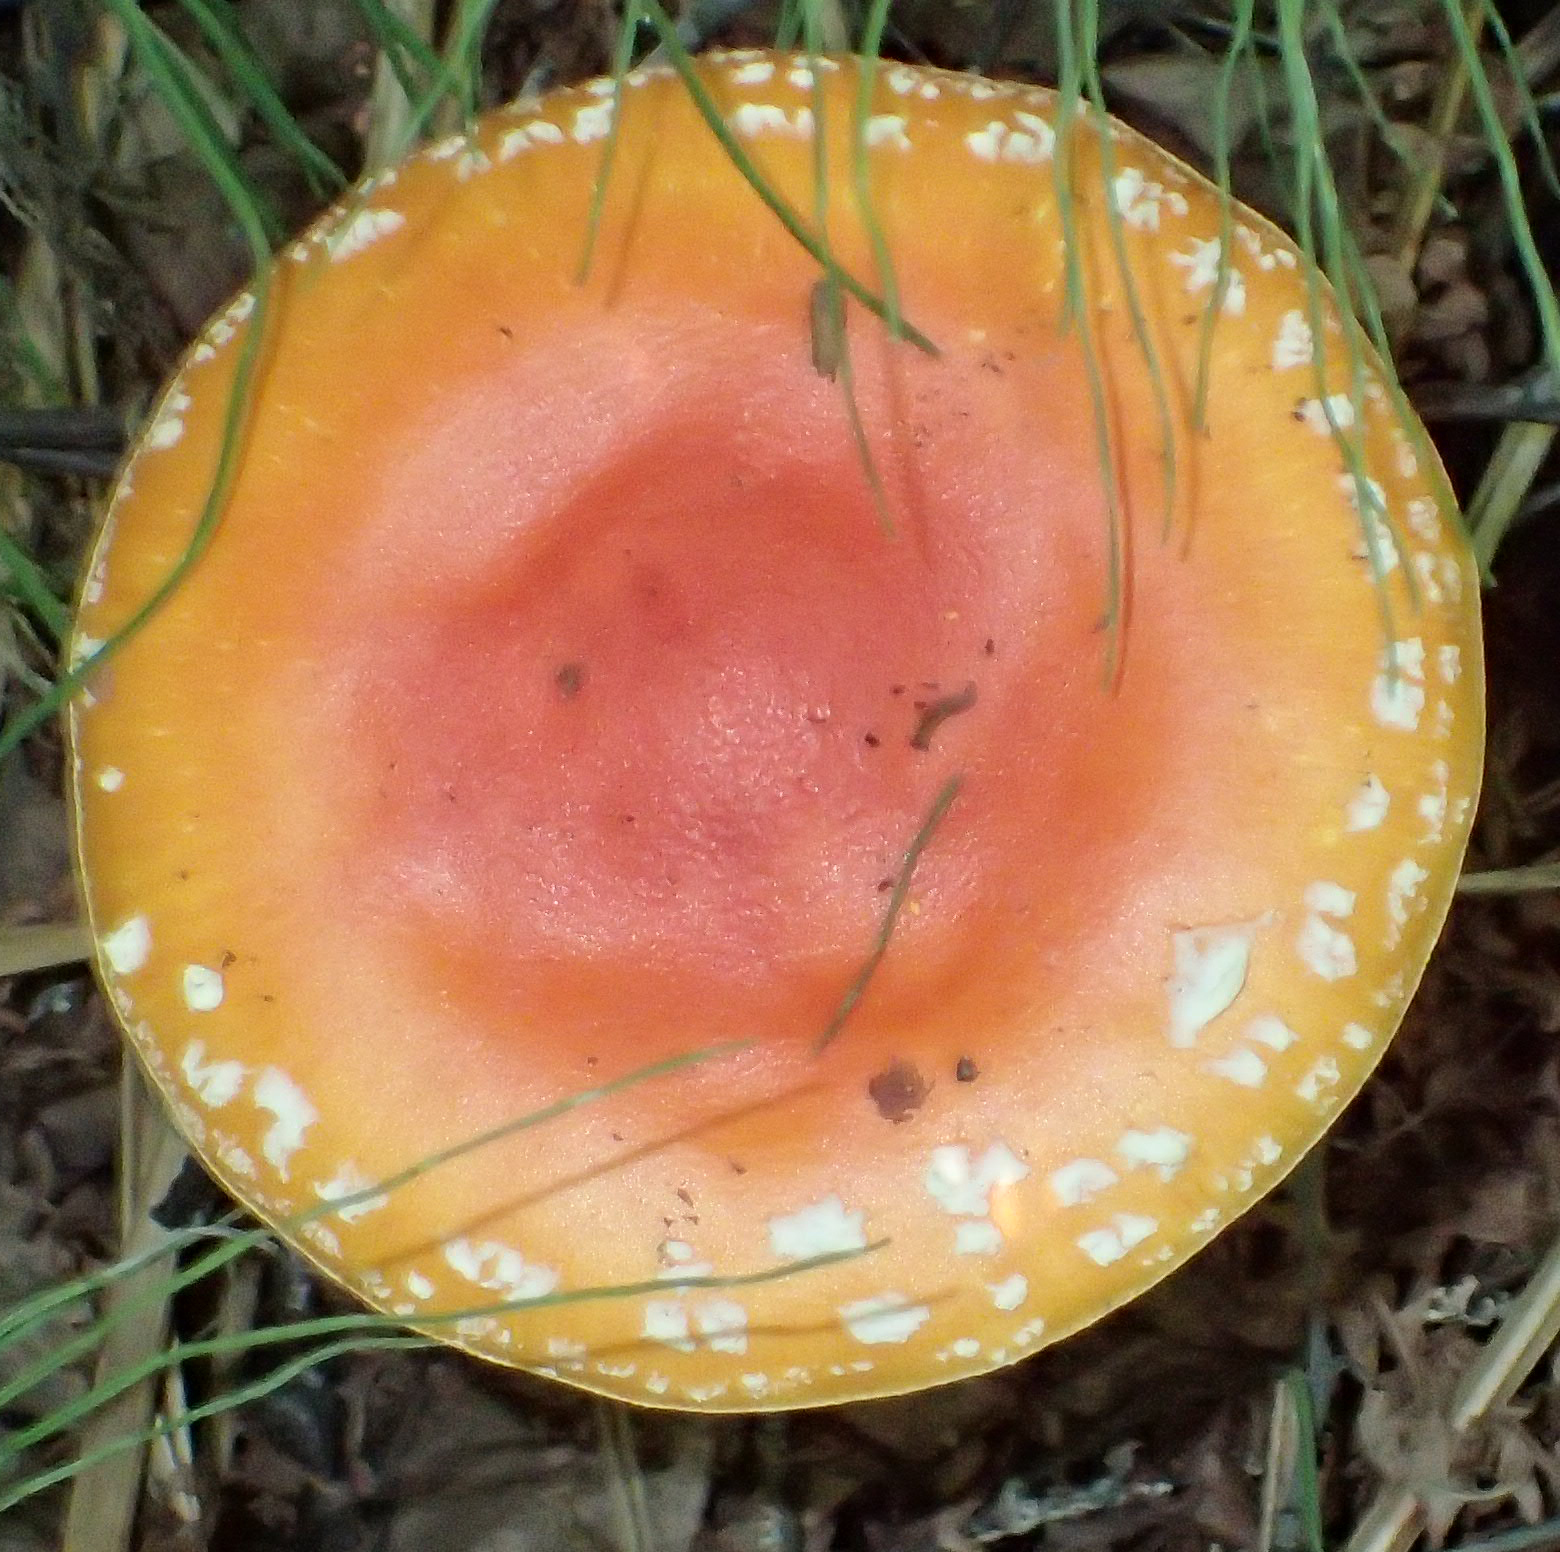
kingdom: Fungi
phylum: Basidiomycota
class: Agaricomycetes
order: Agaricales
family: Amanitaceae
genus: Amanita
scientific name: Amanita muscaria
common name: Fly agaric
